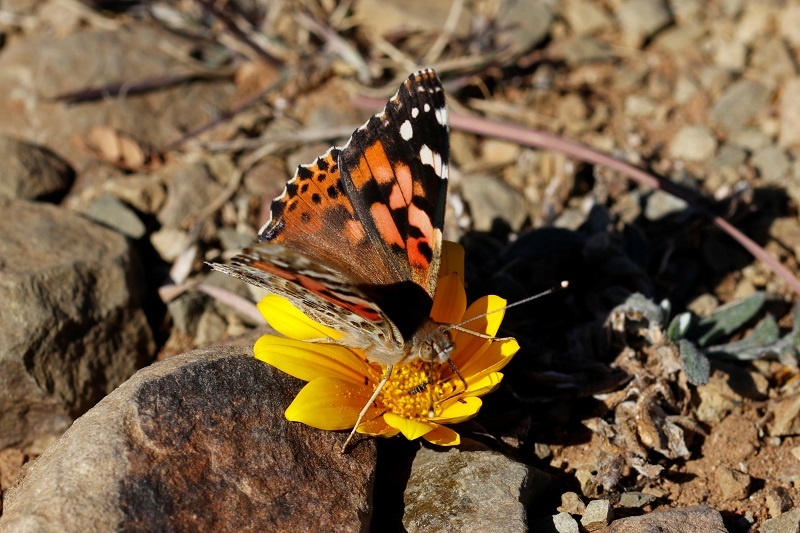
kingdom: Animalia
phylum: Arthropoda
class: Insecta
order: Lepidoptera
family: Nymphalidae
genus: Vanessa
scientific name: Vanessa cardui
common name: Painted lady
